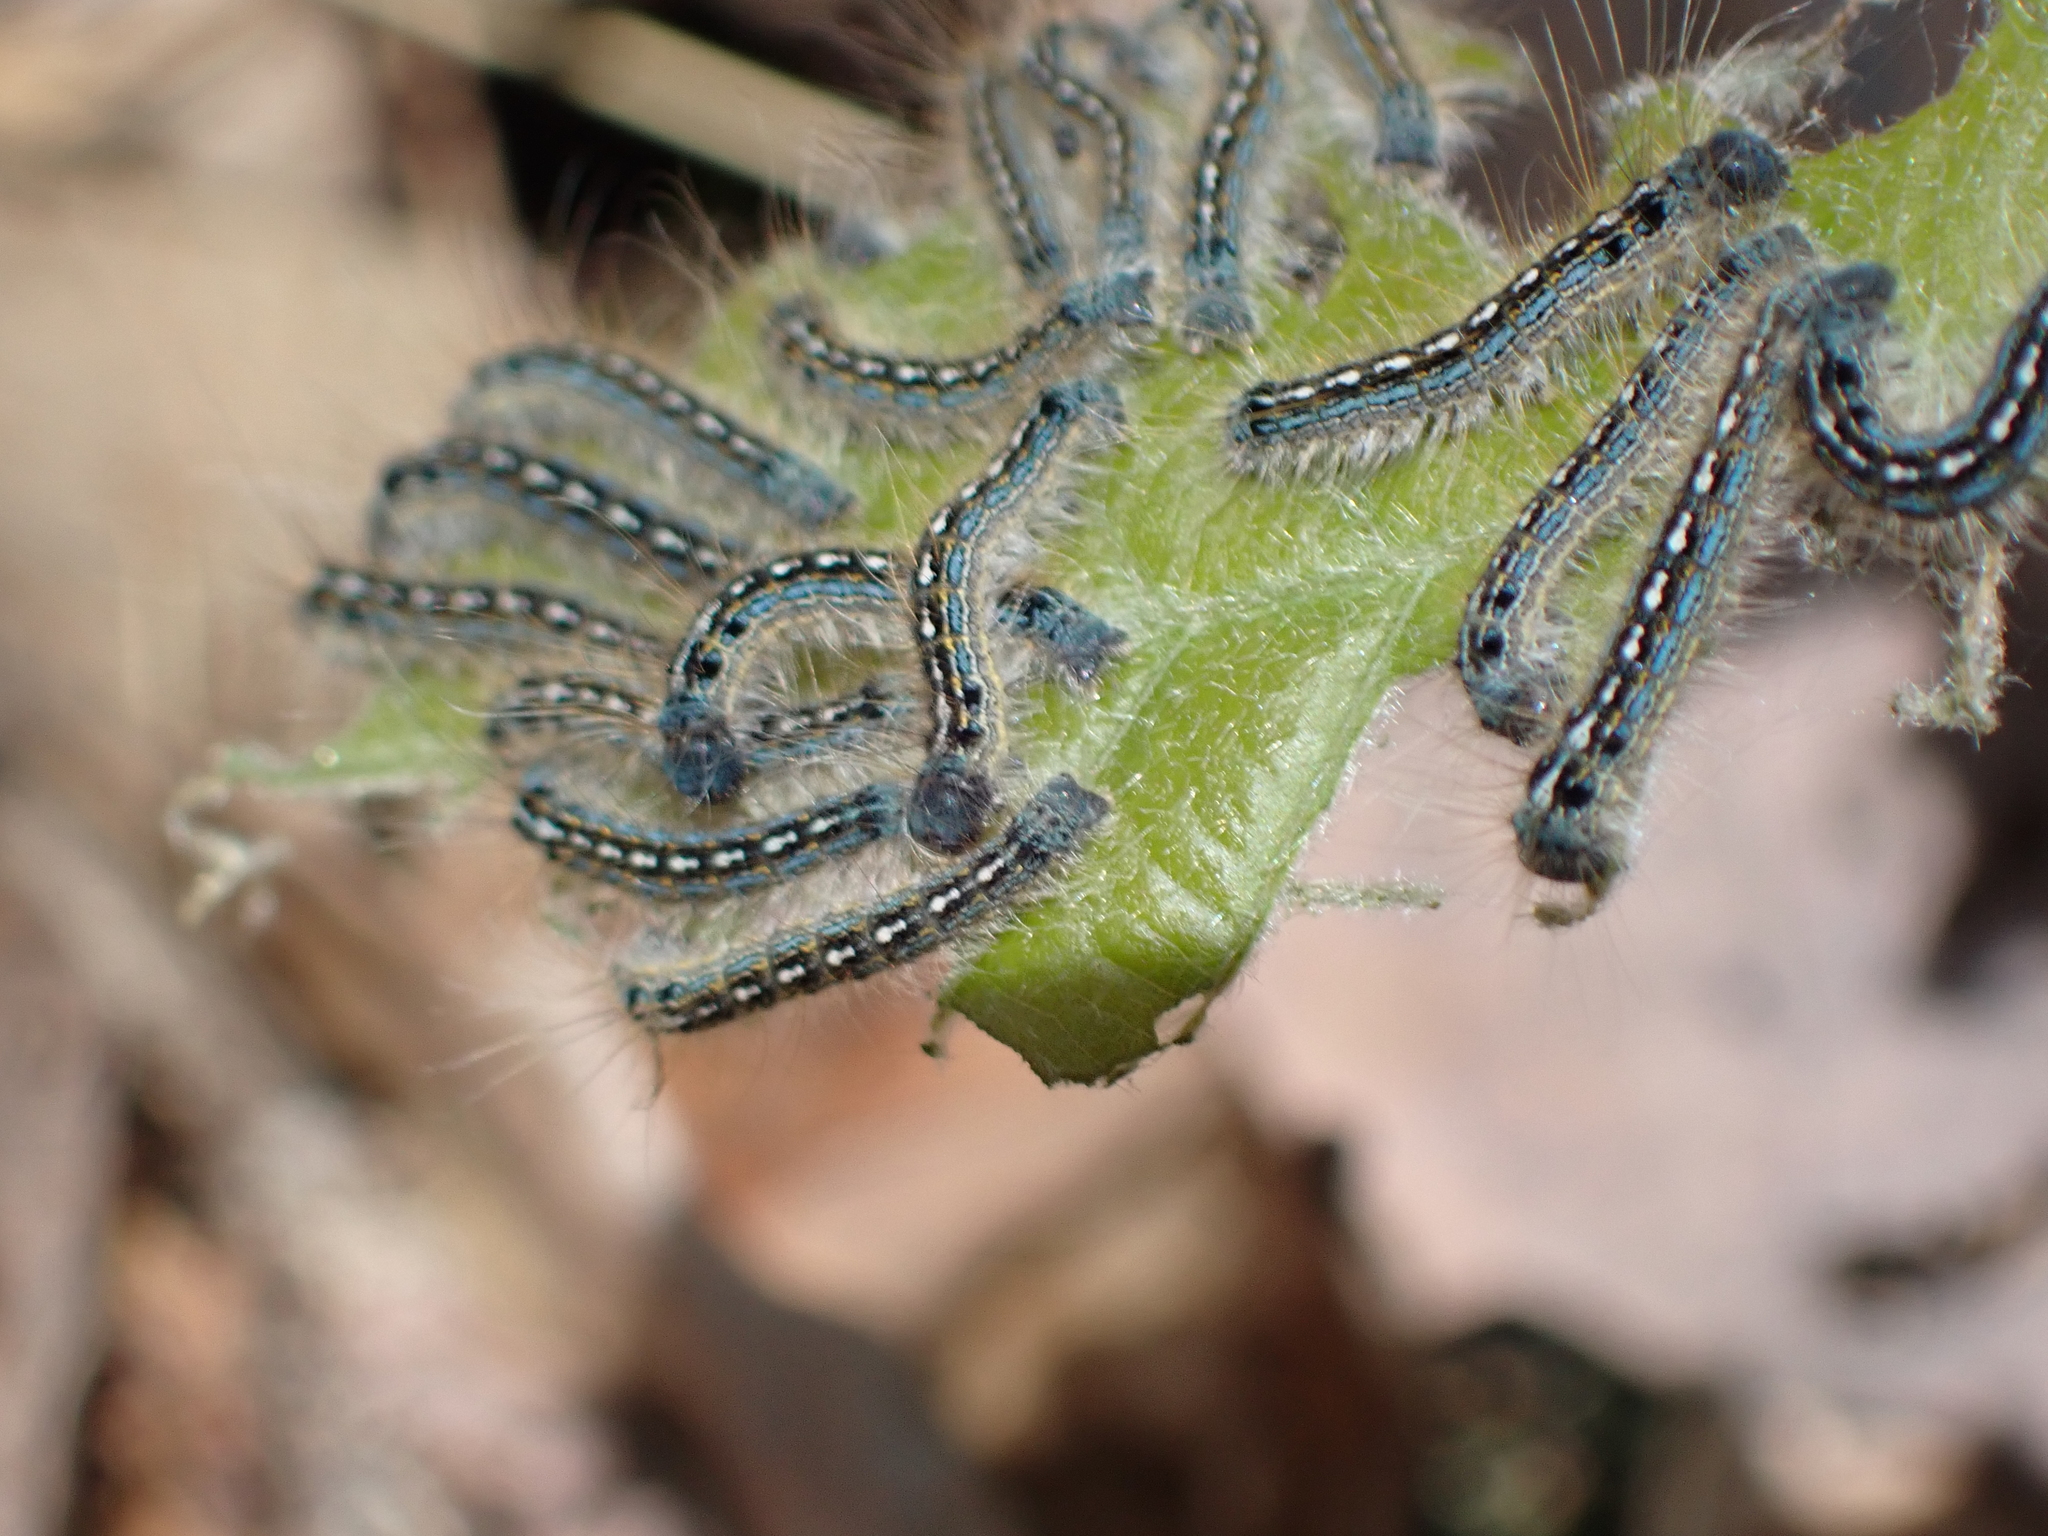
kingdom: Animalia
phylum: Arthropoda
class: Insecta
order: Lepidoptera
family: Lasiocampidae
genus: Malacosoma
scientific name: Malacosoma disstria
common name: Forest tent caterpillar
